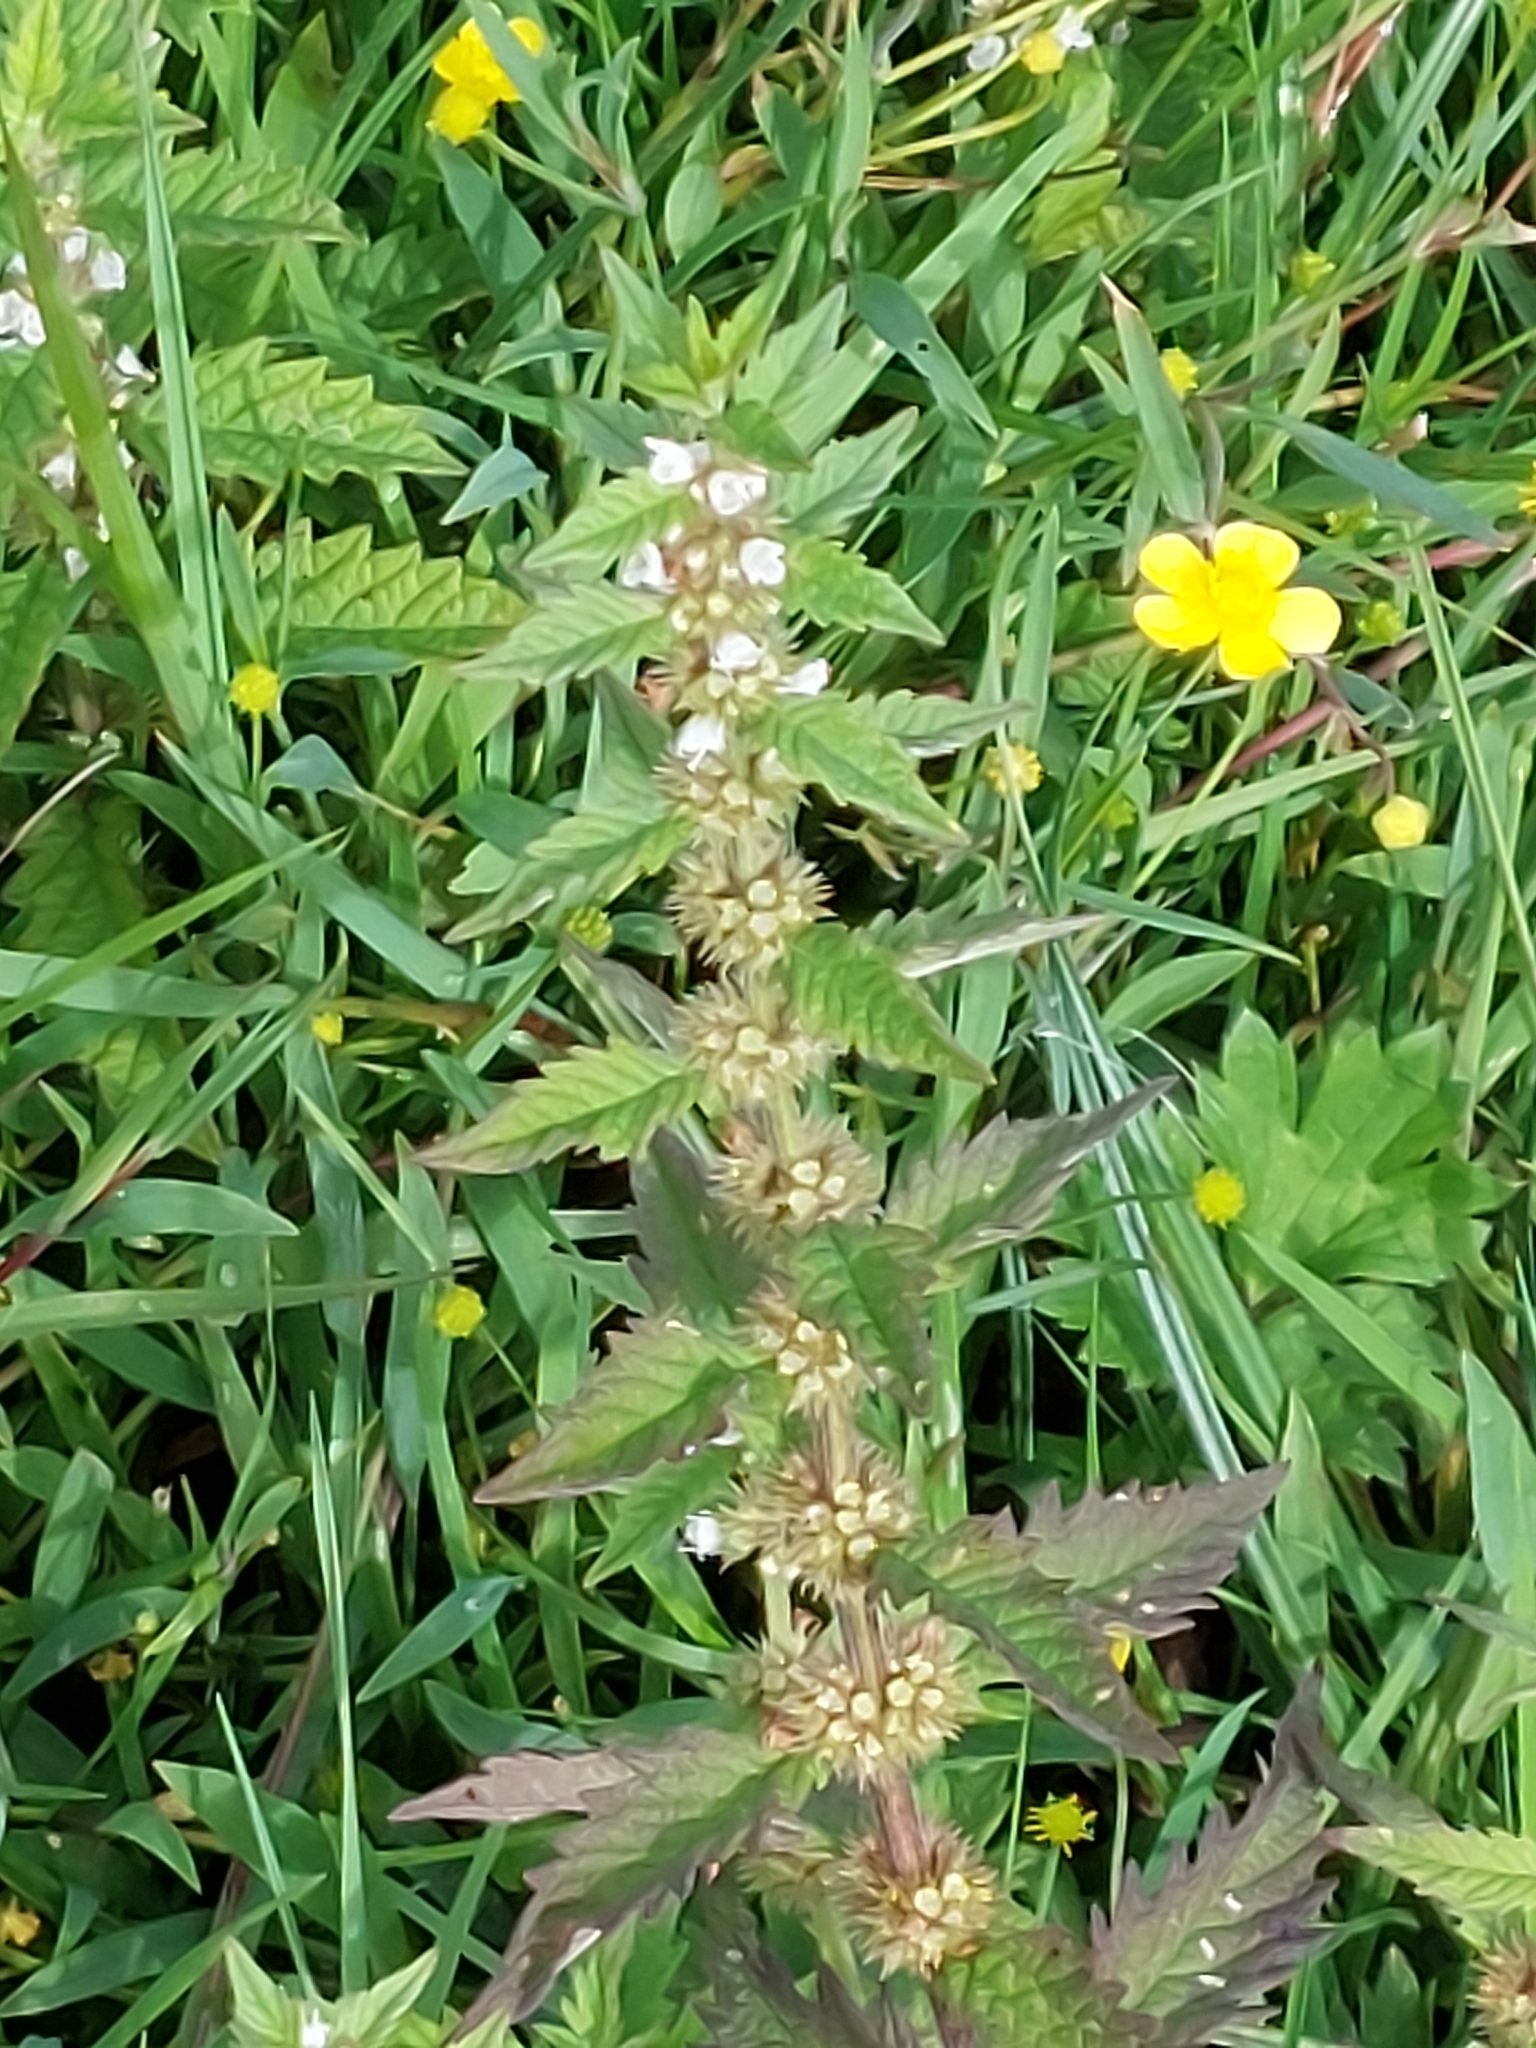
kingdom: Plantae
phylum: Tracheophyta
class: Magnoliopsida
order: Lamiales
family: Lamiaceae
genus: Lycopus
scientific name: Lycopus europaeus
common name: European bugleweed
